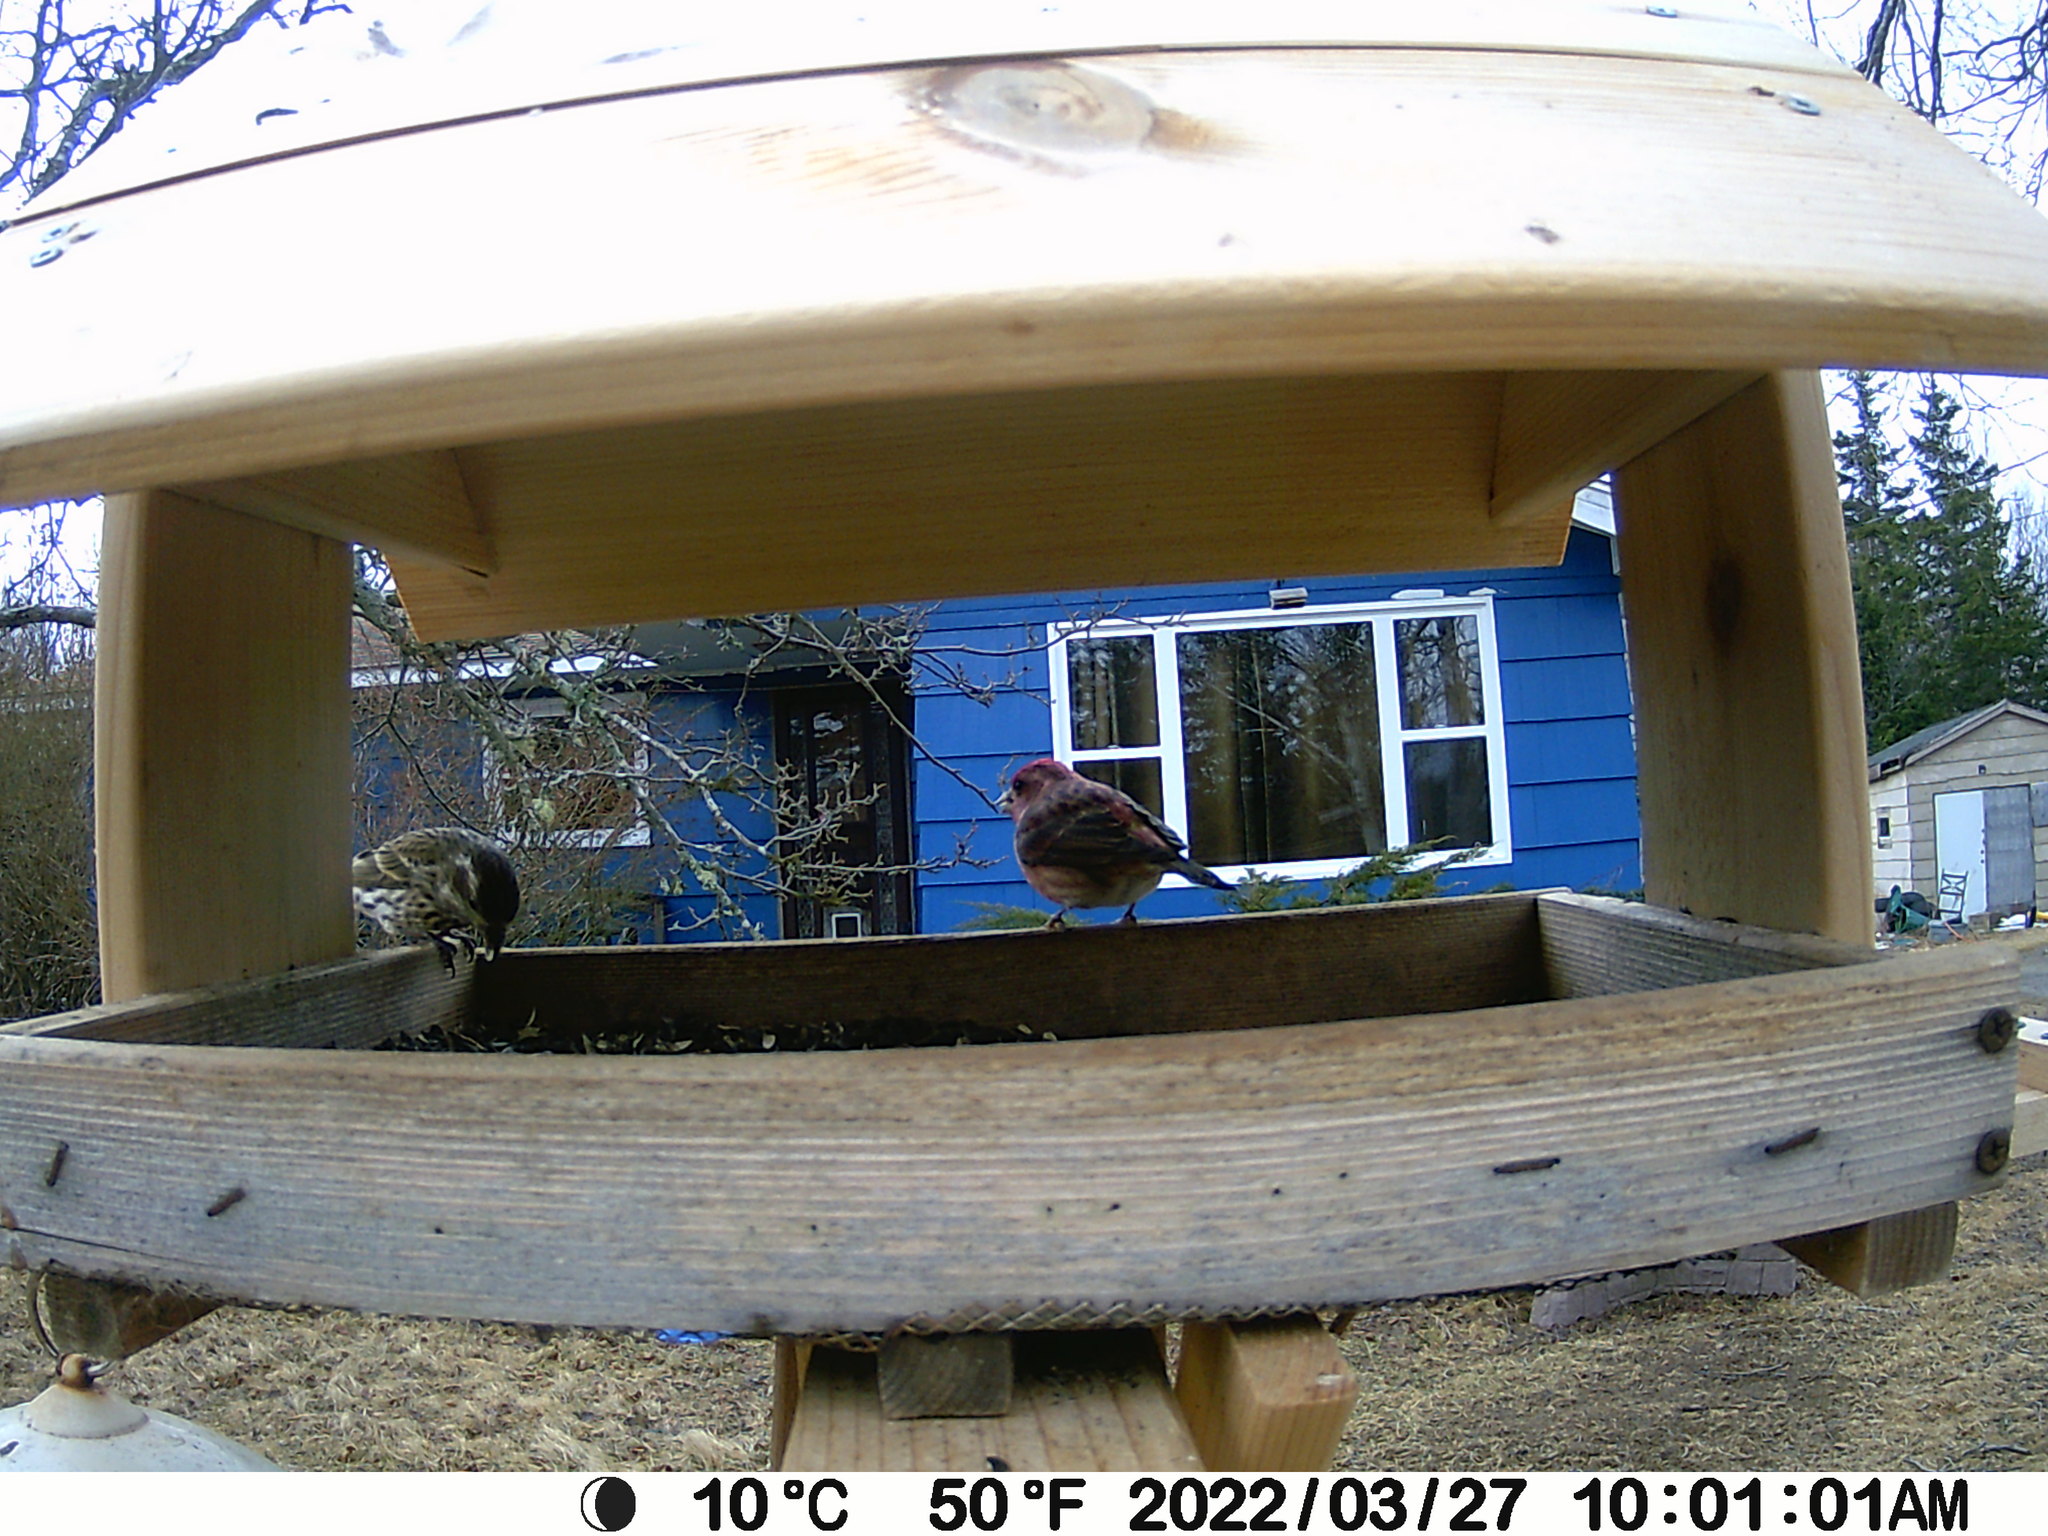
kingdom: Animalia
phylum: Chordata
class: Aves
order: Passeriformes
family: Fringillidae
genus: Haemorhous
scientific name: Haemorhous purpureus
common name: Purple finch
